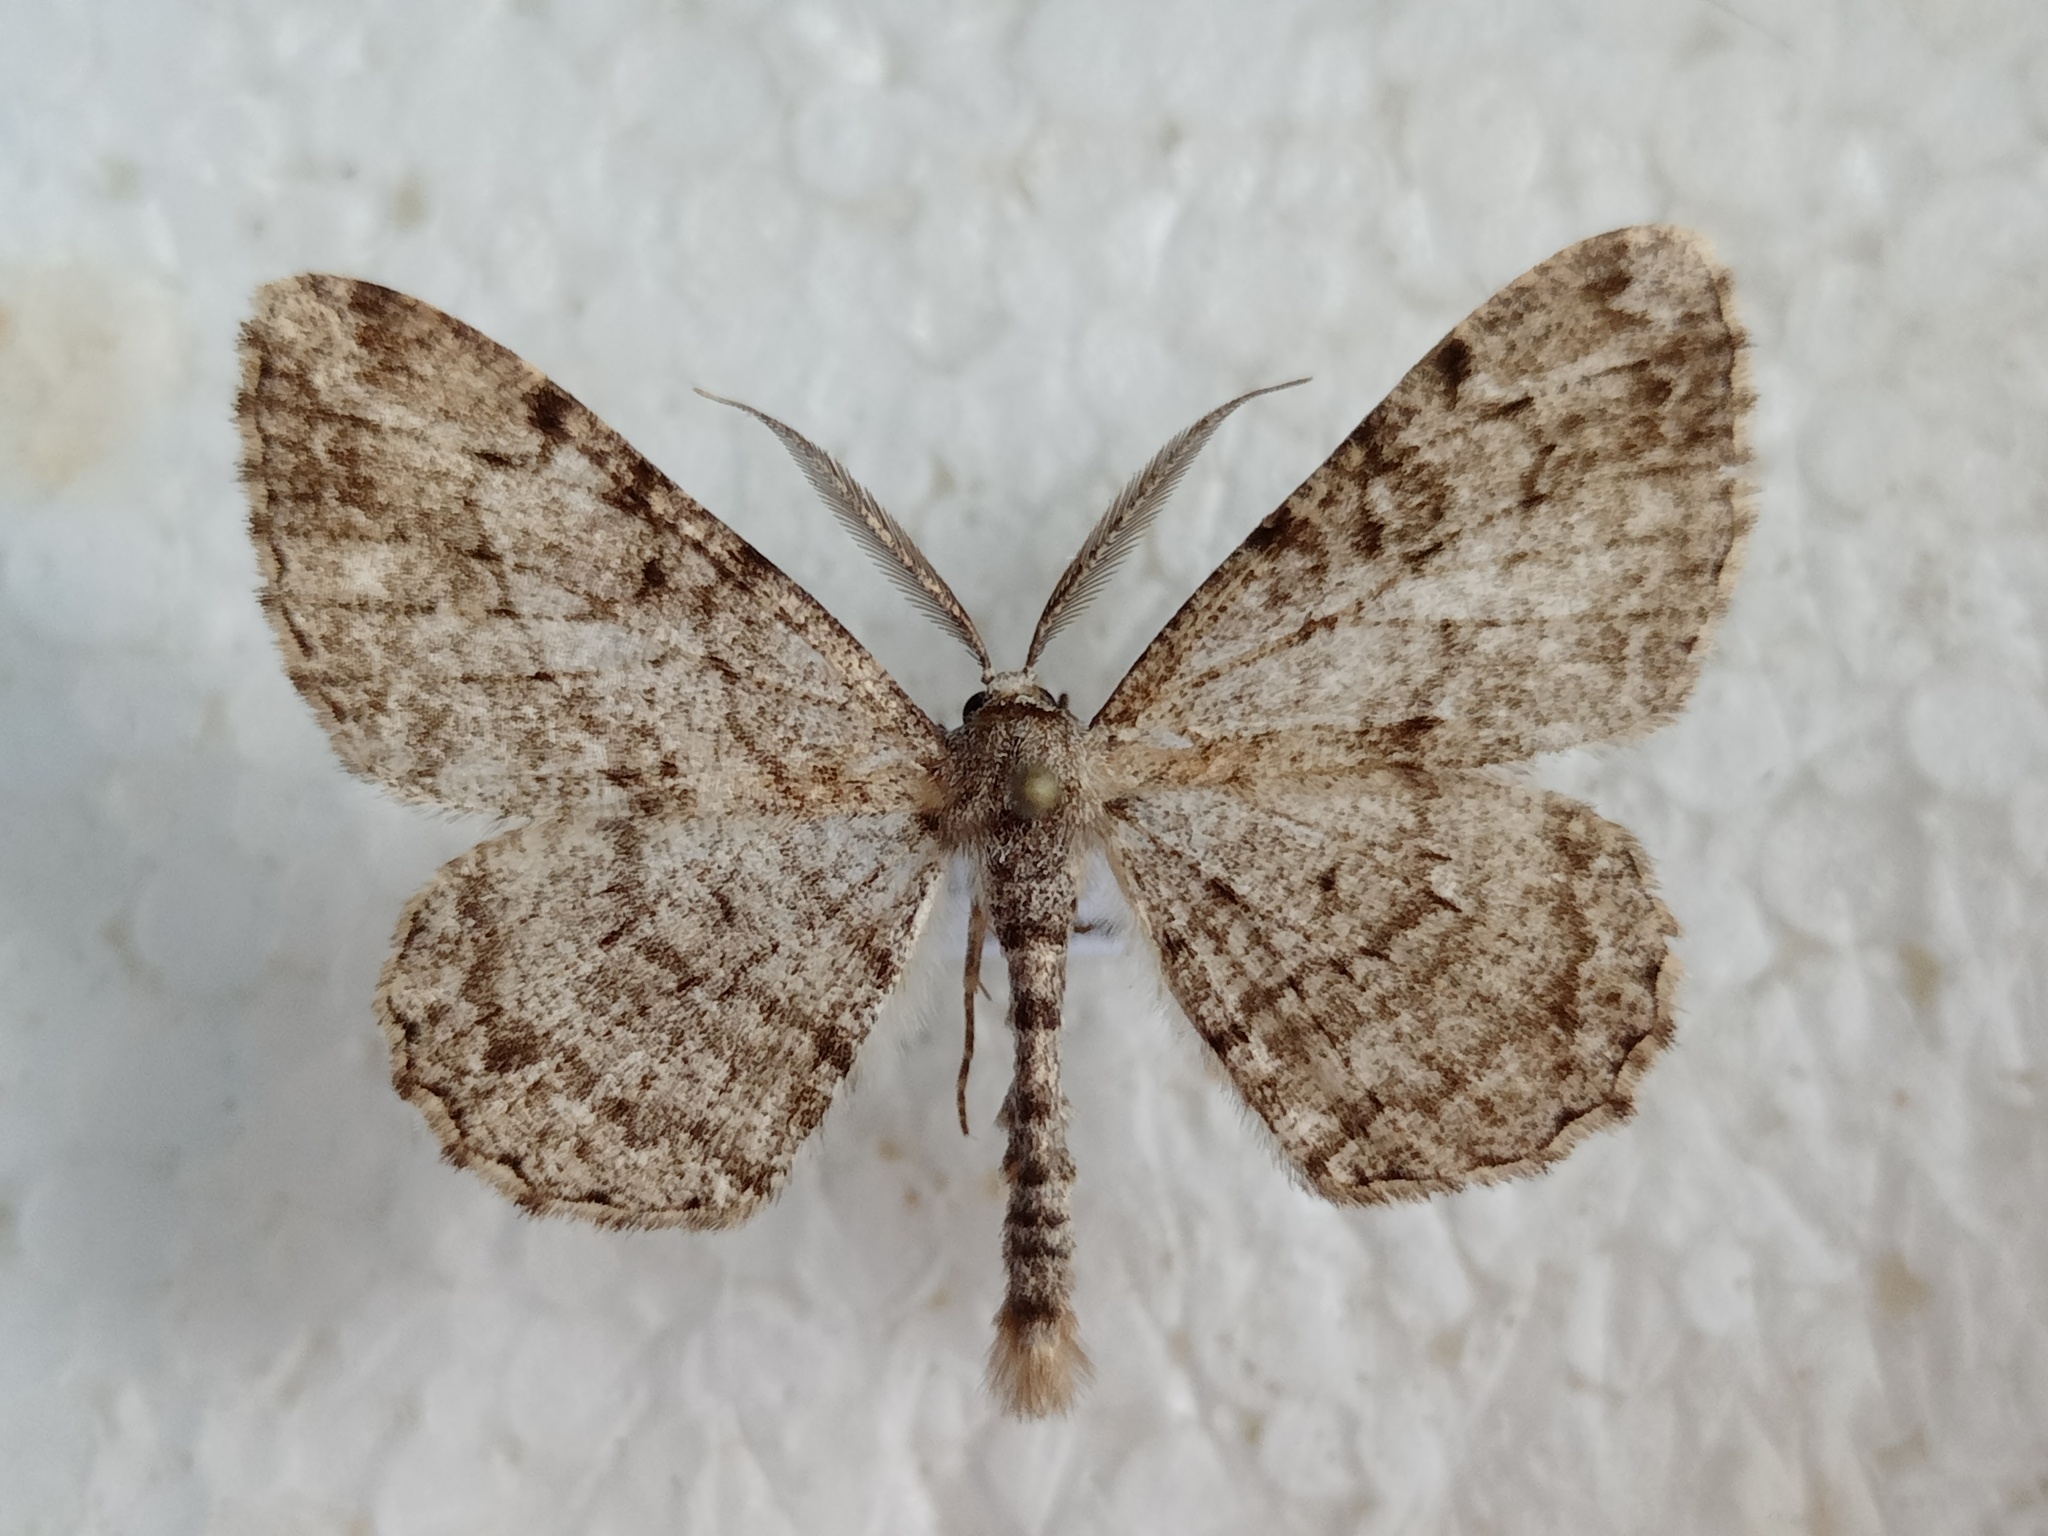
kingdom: Animalia
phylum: Arthropoda
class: Insecta
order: Lepidoptera
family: Geometridae
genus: Peribatodes
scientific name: Peribatodes rhomboidaria
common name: Willow beauty
